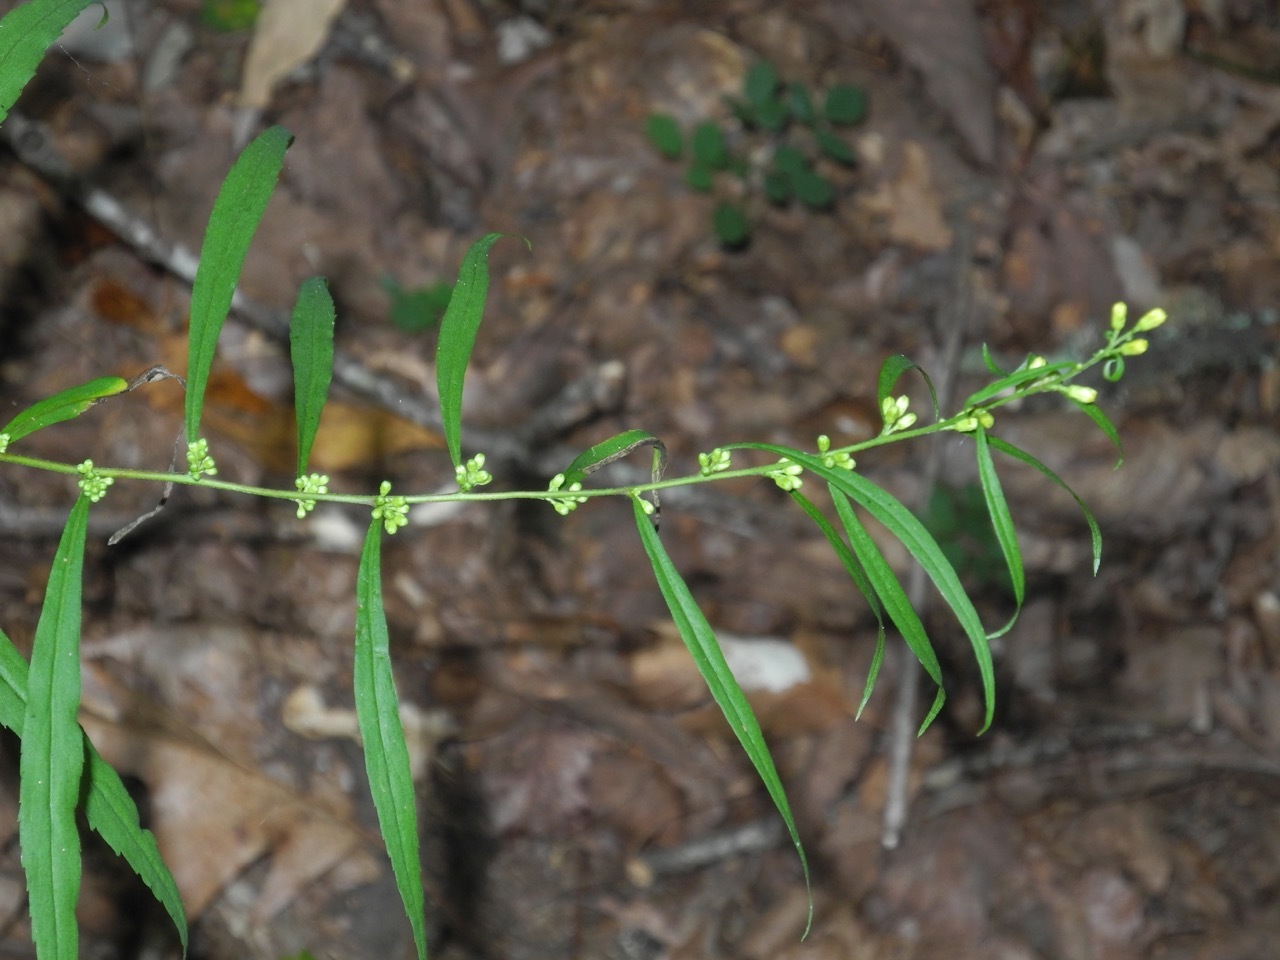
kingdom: Plantae
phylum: Tracheophyta
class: Magnoliopsida
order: Asterales
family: Asteraceae
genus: Solidago
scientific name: Solidago caesia
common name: Woodland goldenrod
